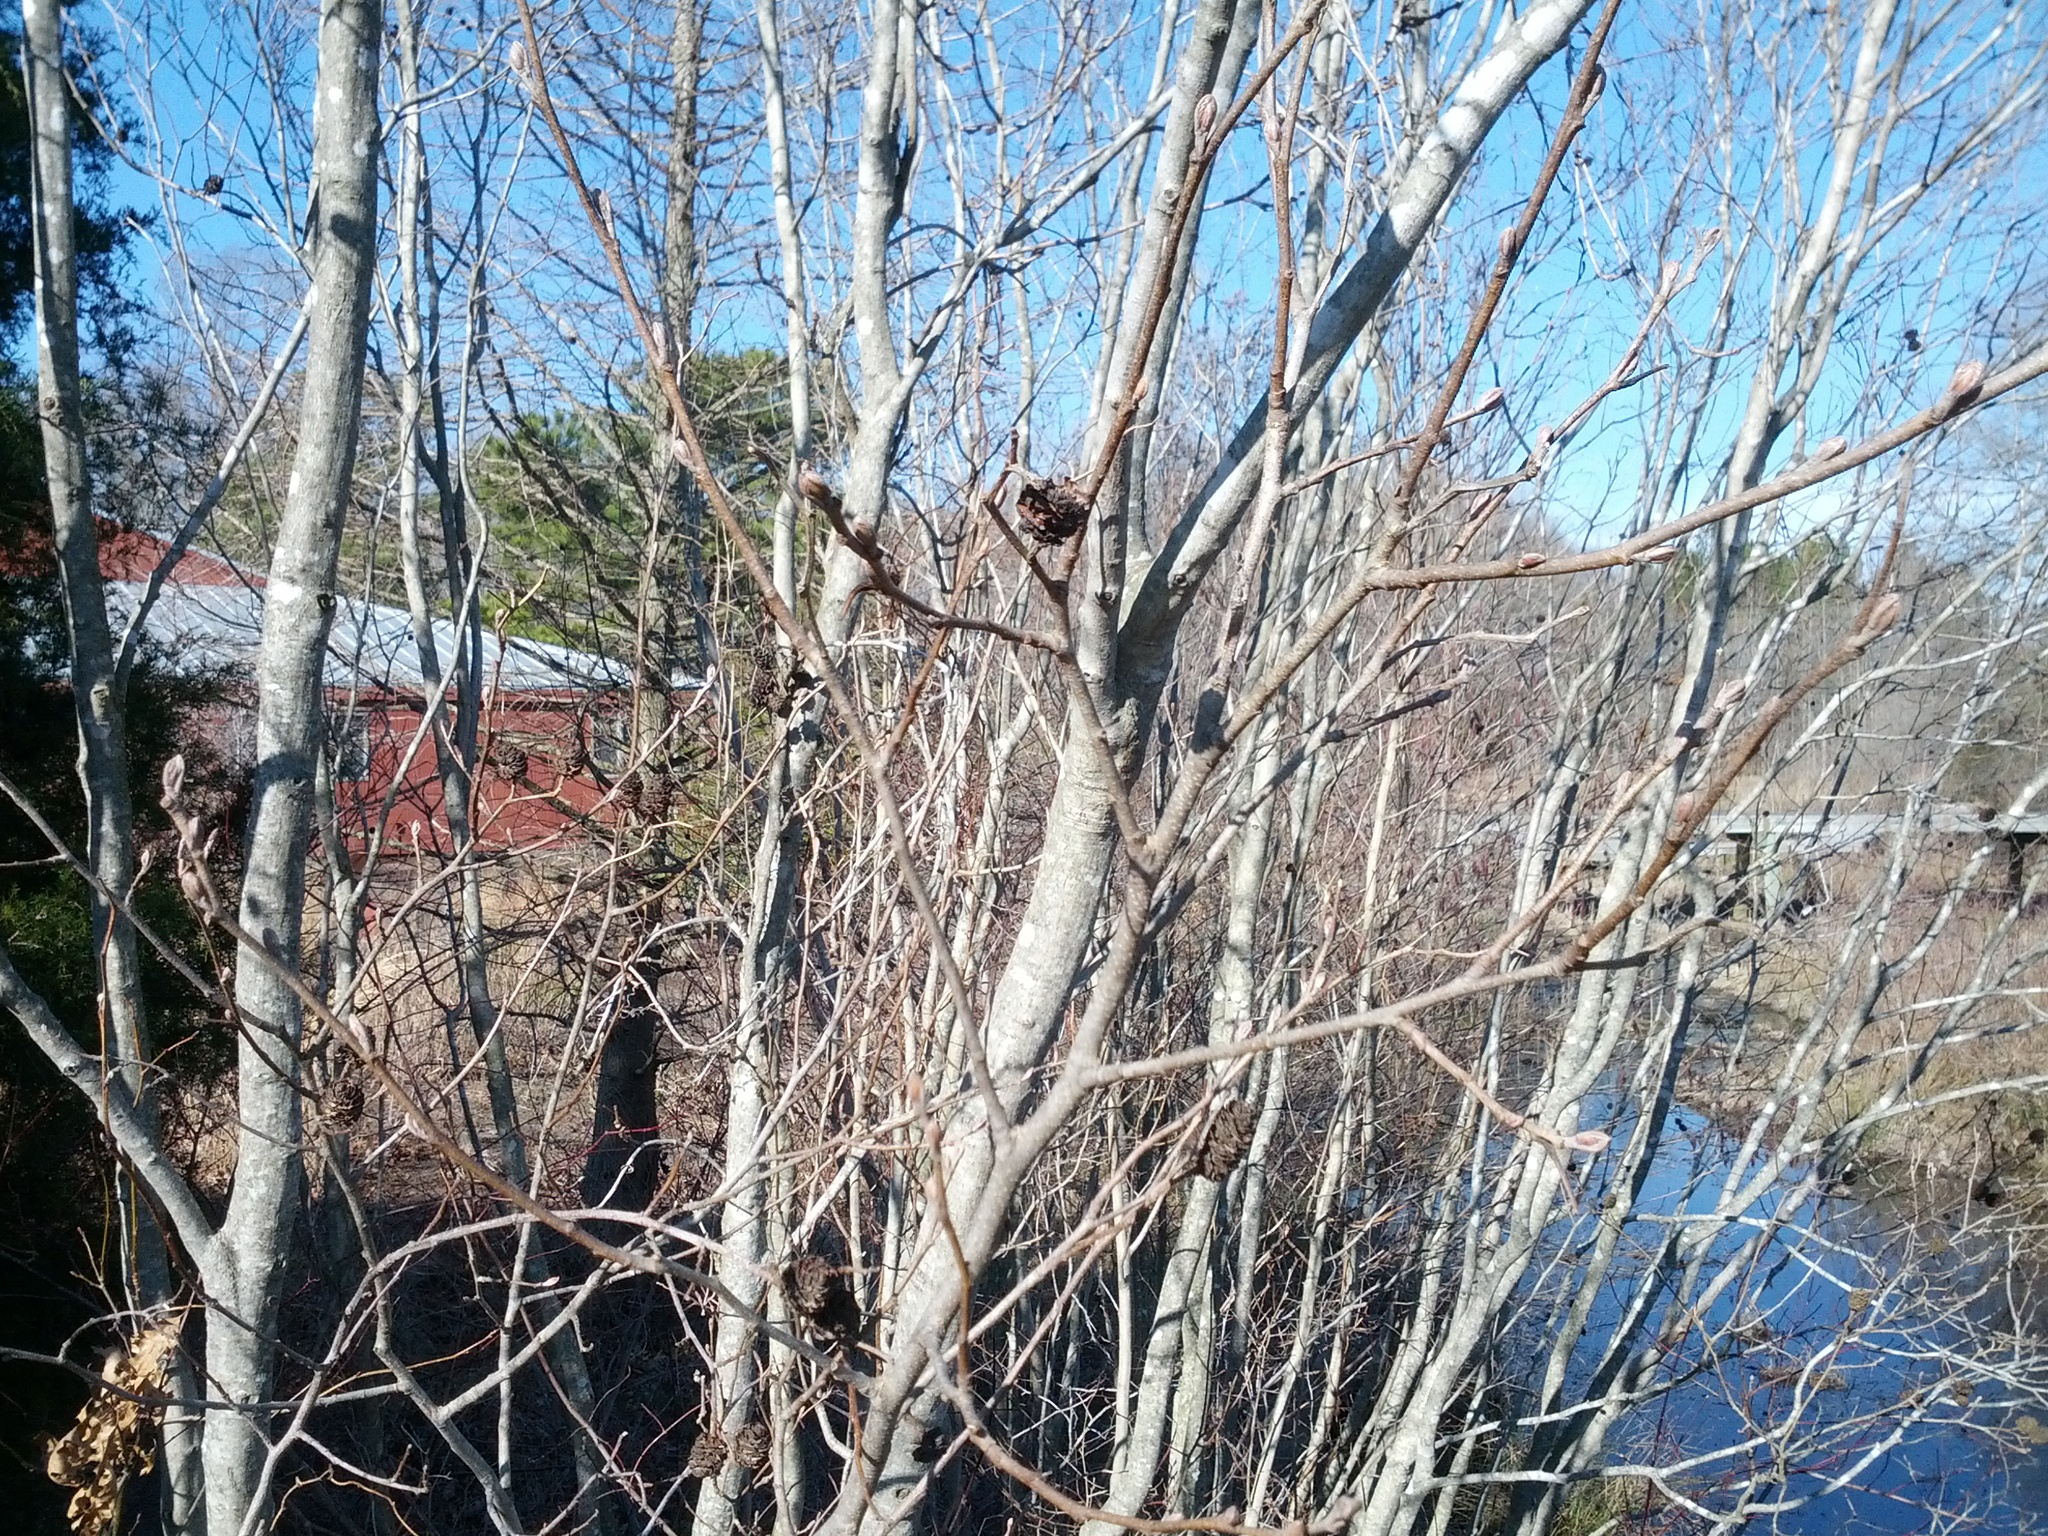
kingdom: Plantae
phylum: Tracheophyta
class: Magnoliopsida
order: Fagales
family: Betulaceae
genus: Alnus
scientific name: Alnus serrulata
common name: Hazel alder
